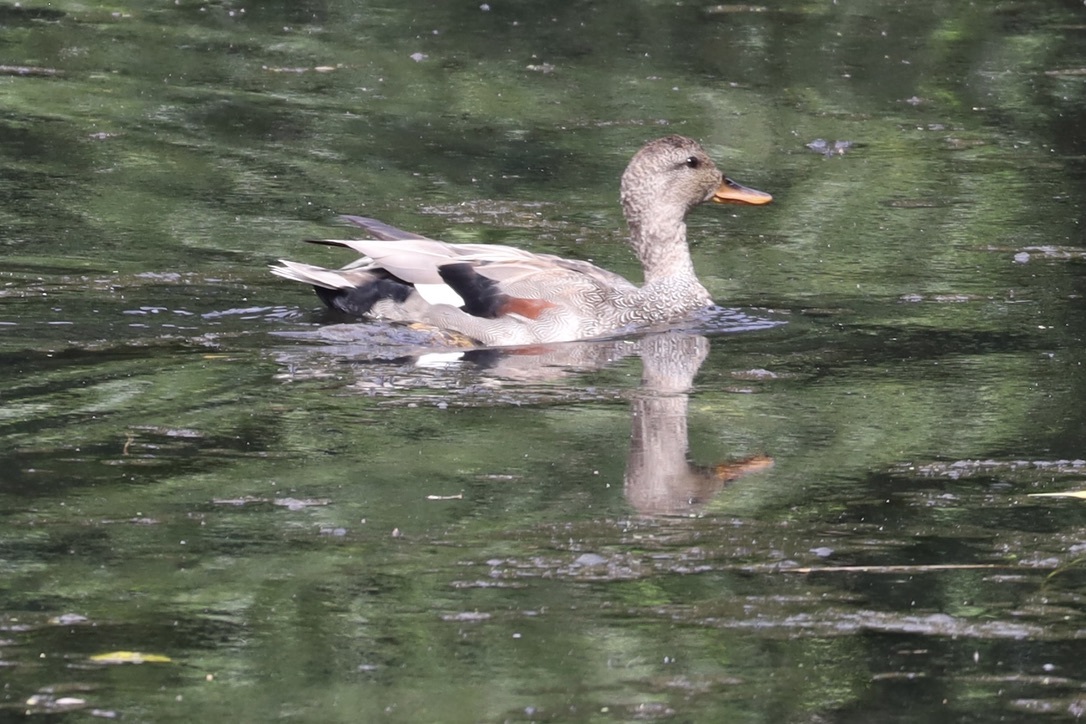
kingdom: Animalia
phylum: Chordata
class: Aves
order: Anseriformes
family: Anatidae
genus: Mareca
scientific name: Mareca strepera
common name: Gadwall
